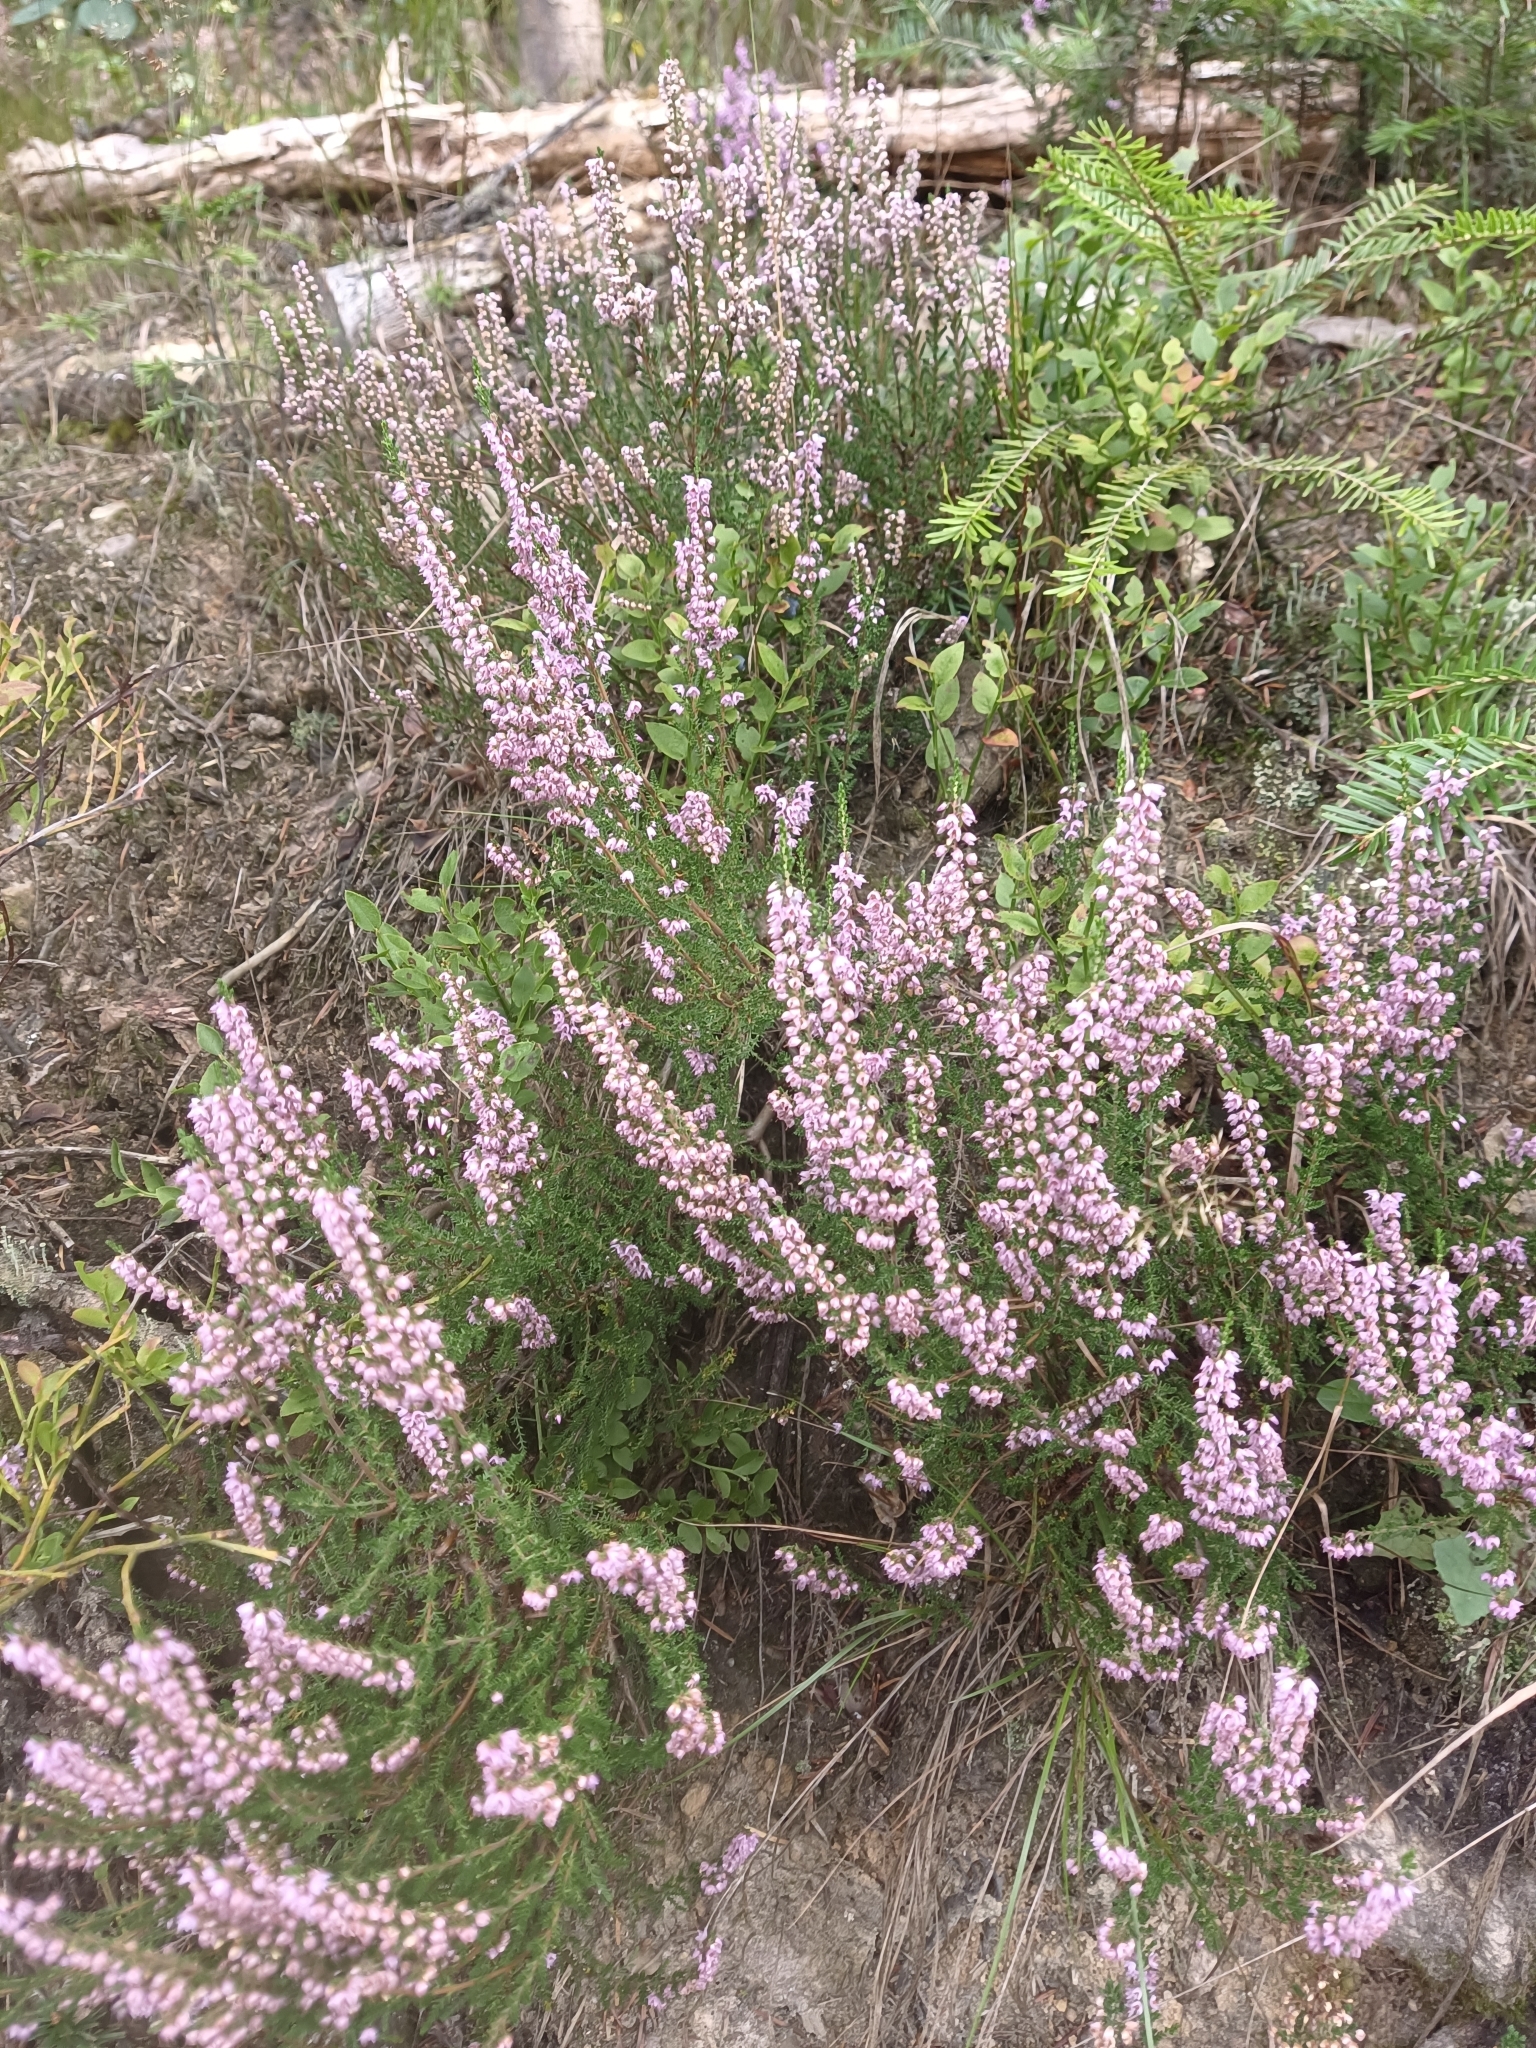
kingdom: Plantae
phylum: Tracheophyta
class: Magnoliopsida
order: Ericales
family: Ericaceae
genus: Calluna
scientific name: Calluna vulgaris
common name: Heather
